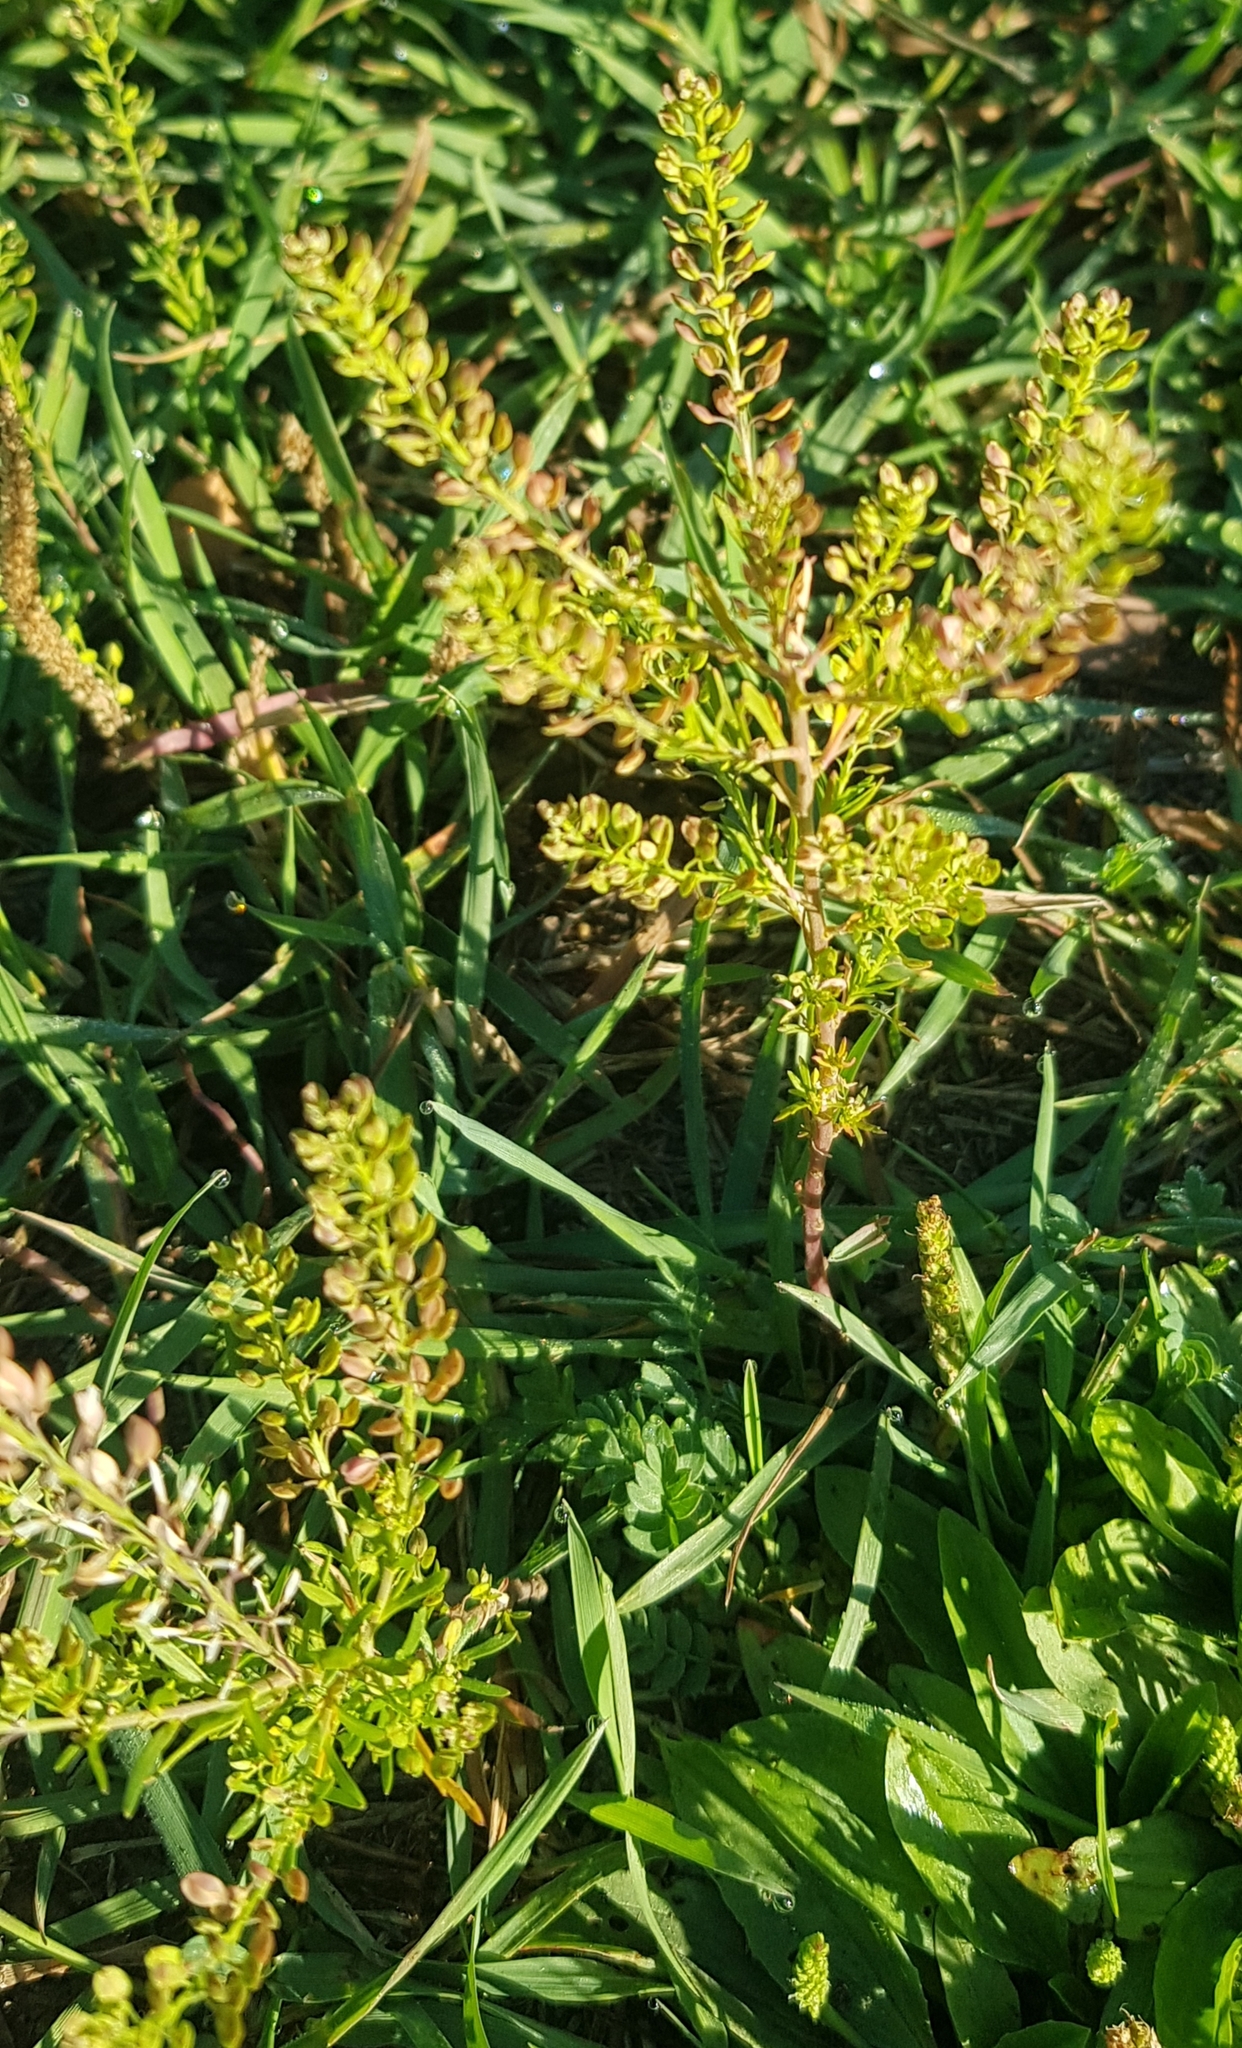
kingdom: Plantae
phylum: Tracheophyta
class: Magnoliopsida
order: Brassicales
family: Brassicaceae
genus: Lepidium
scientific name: Lepidium densiflorum
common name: Miner's pepperwort
